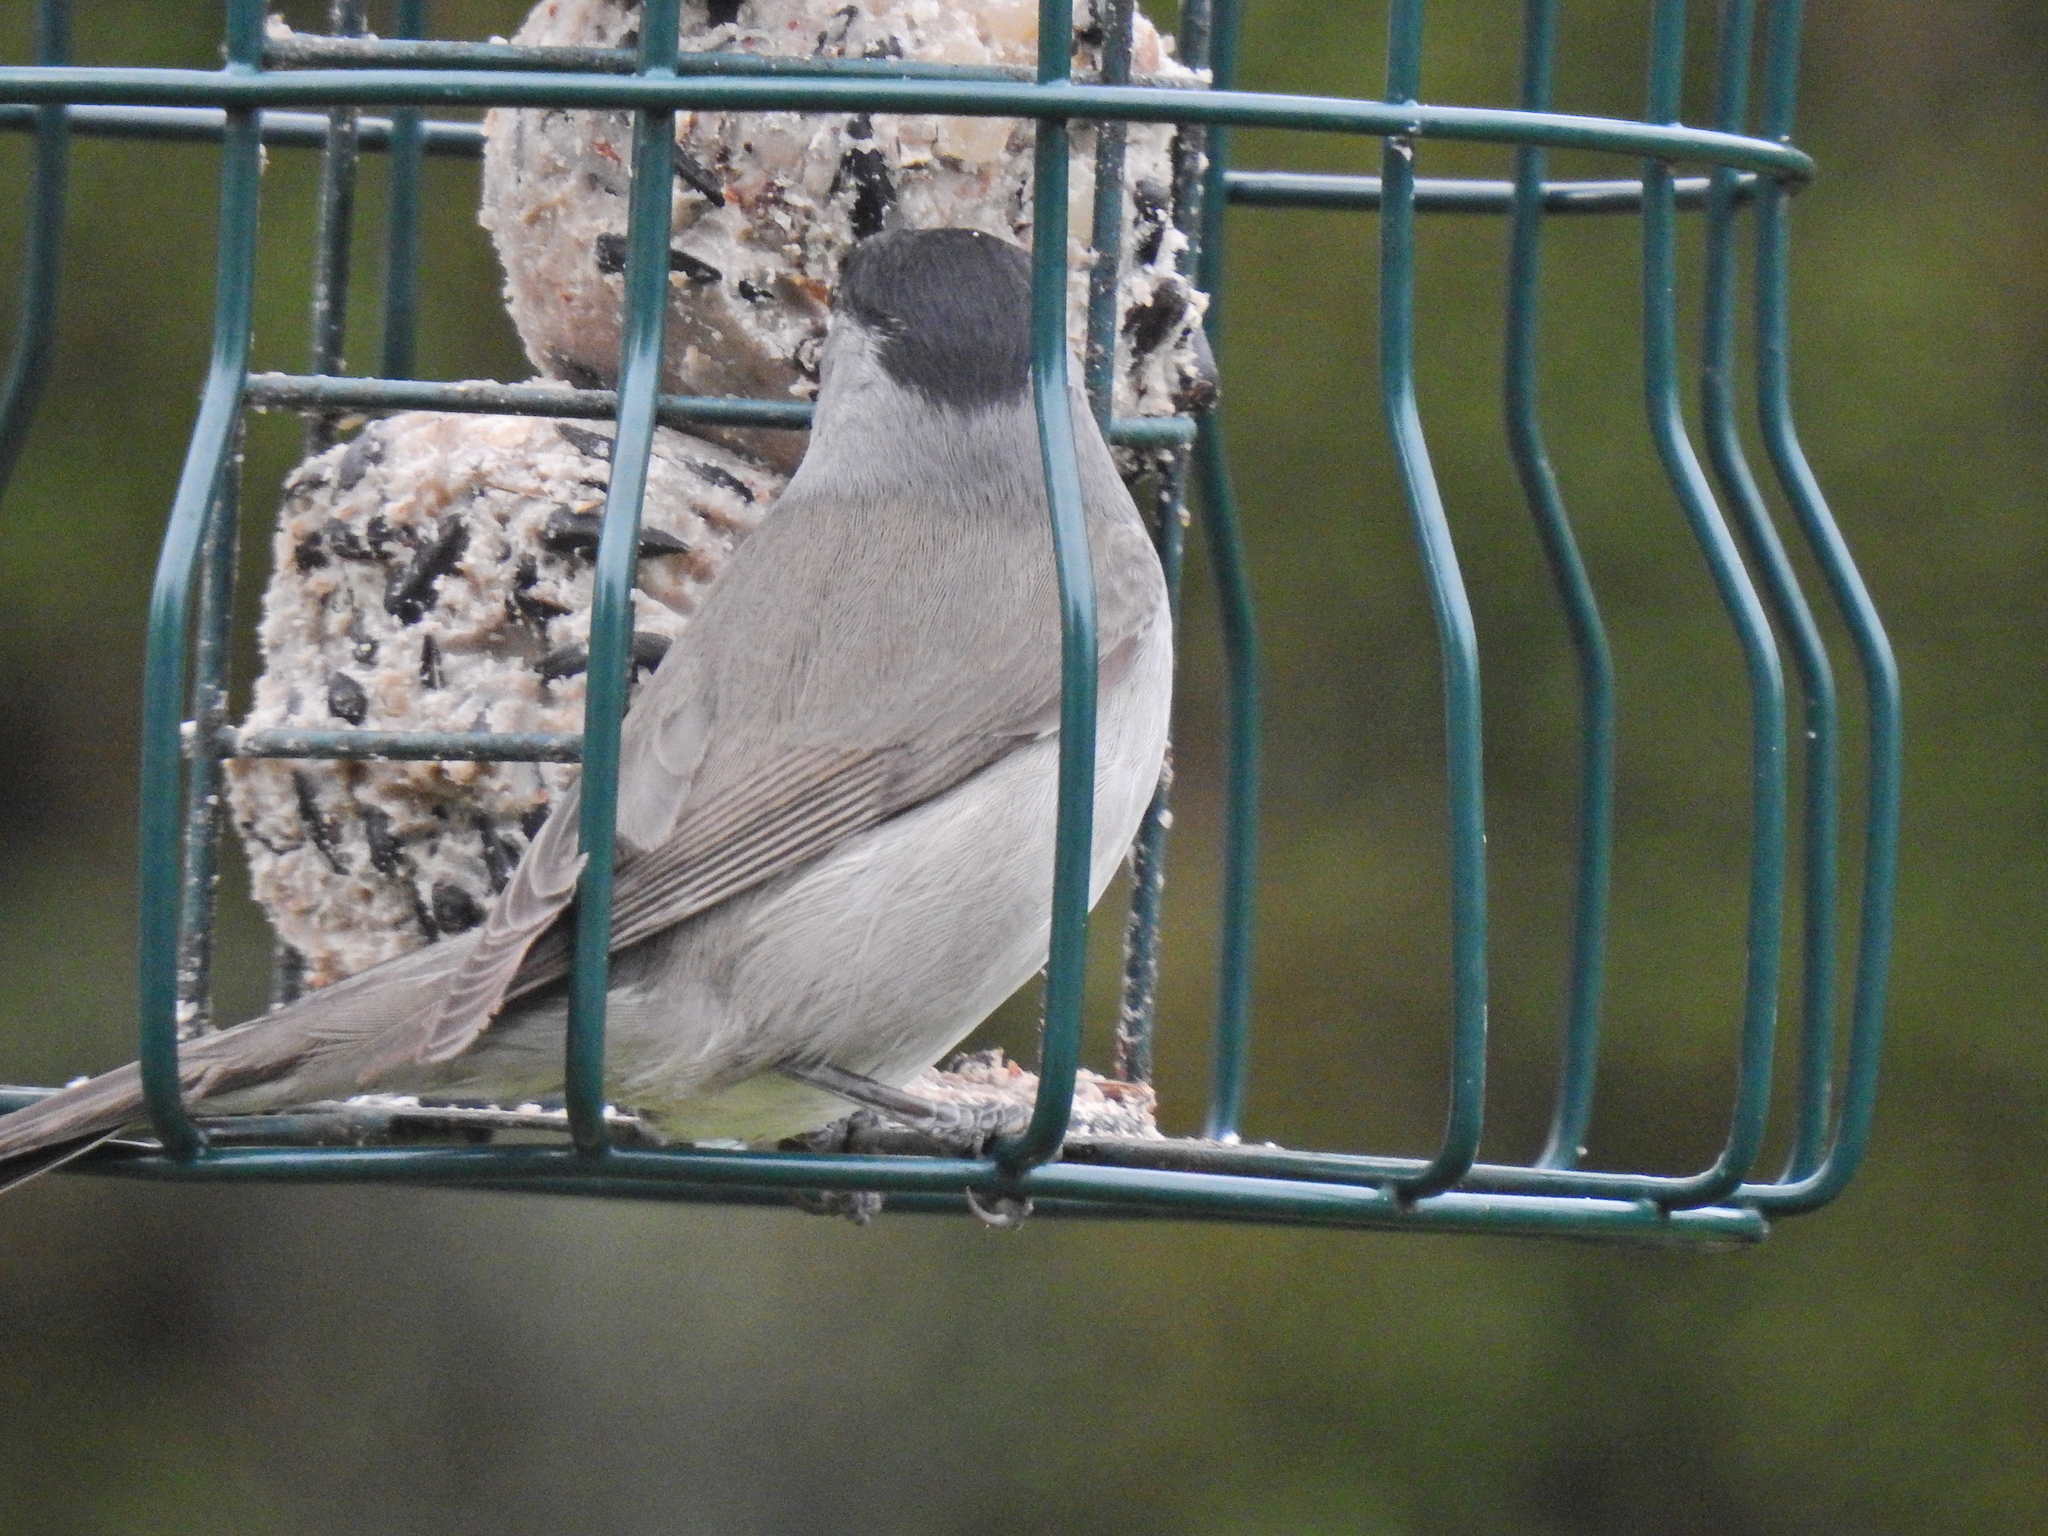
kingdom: Animalia
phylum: Chordata
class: Aves
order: Passeriformes
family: Sylviidae
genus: Sylvia
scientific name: Sylvia atricapilla
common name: Eurasian blackcap
